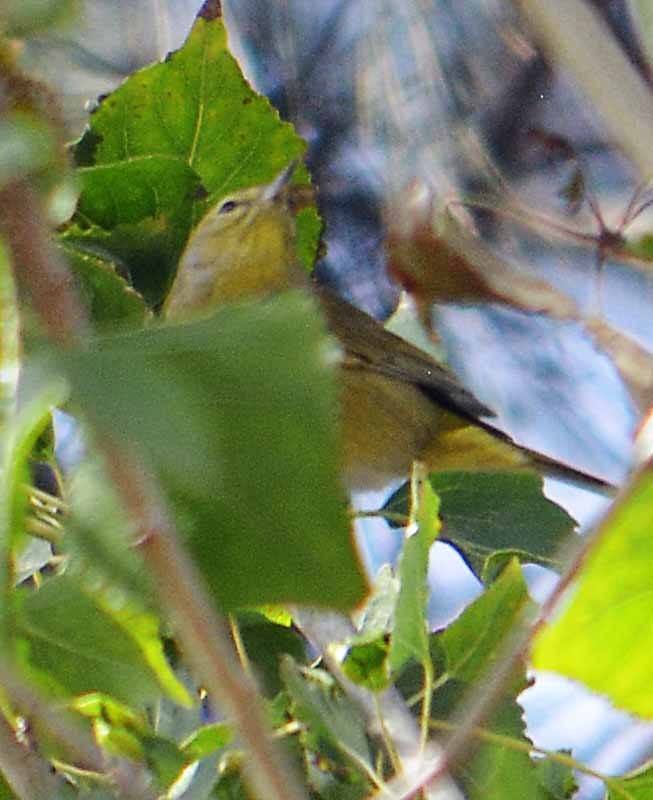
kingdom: Animalia
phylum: Chordata
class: Aves
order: Passeriformes
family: Parulidae
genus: Leiothlypis
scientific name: Leiothlypis celata
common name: Orange-crowned warbler
